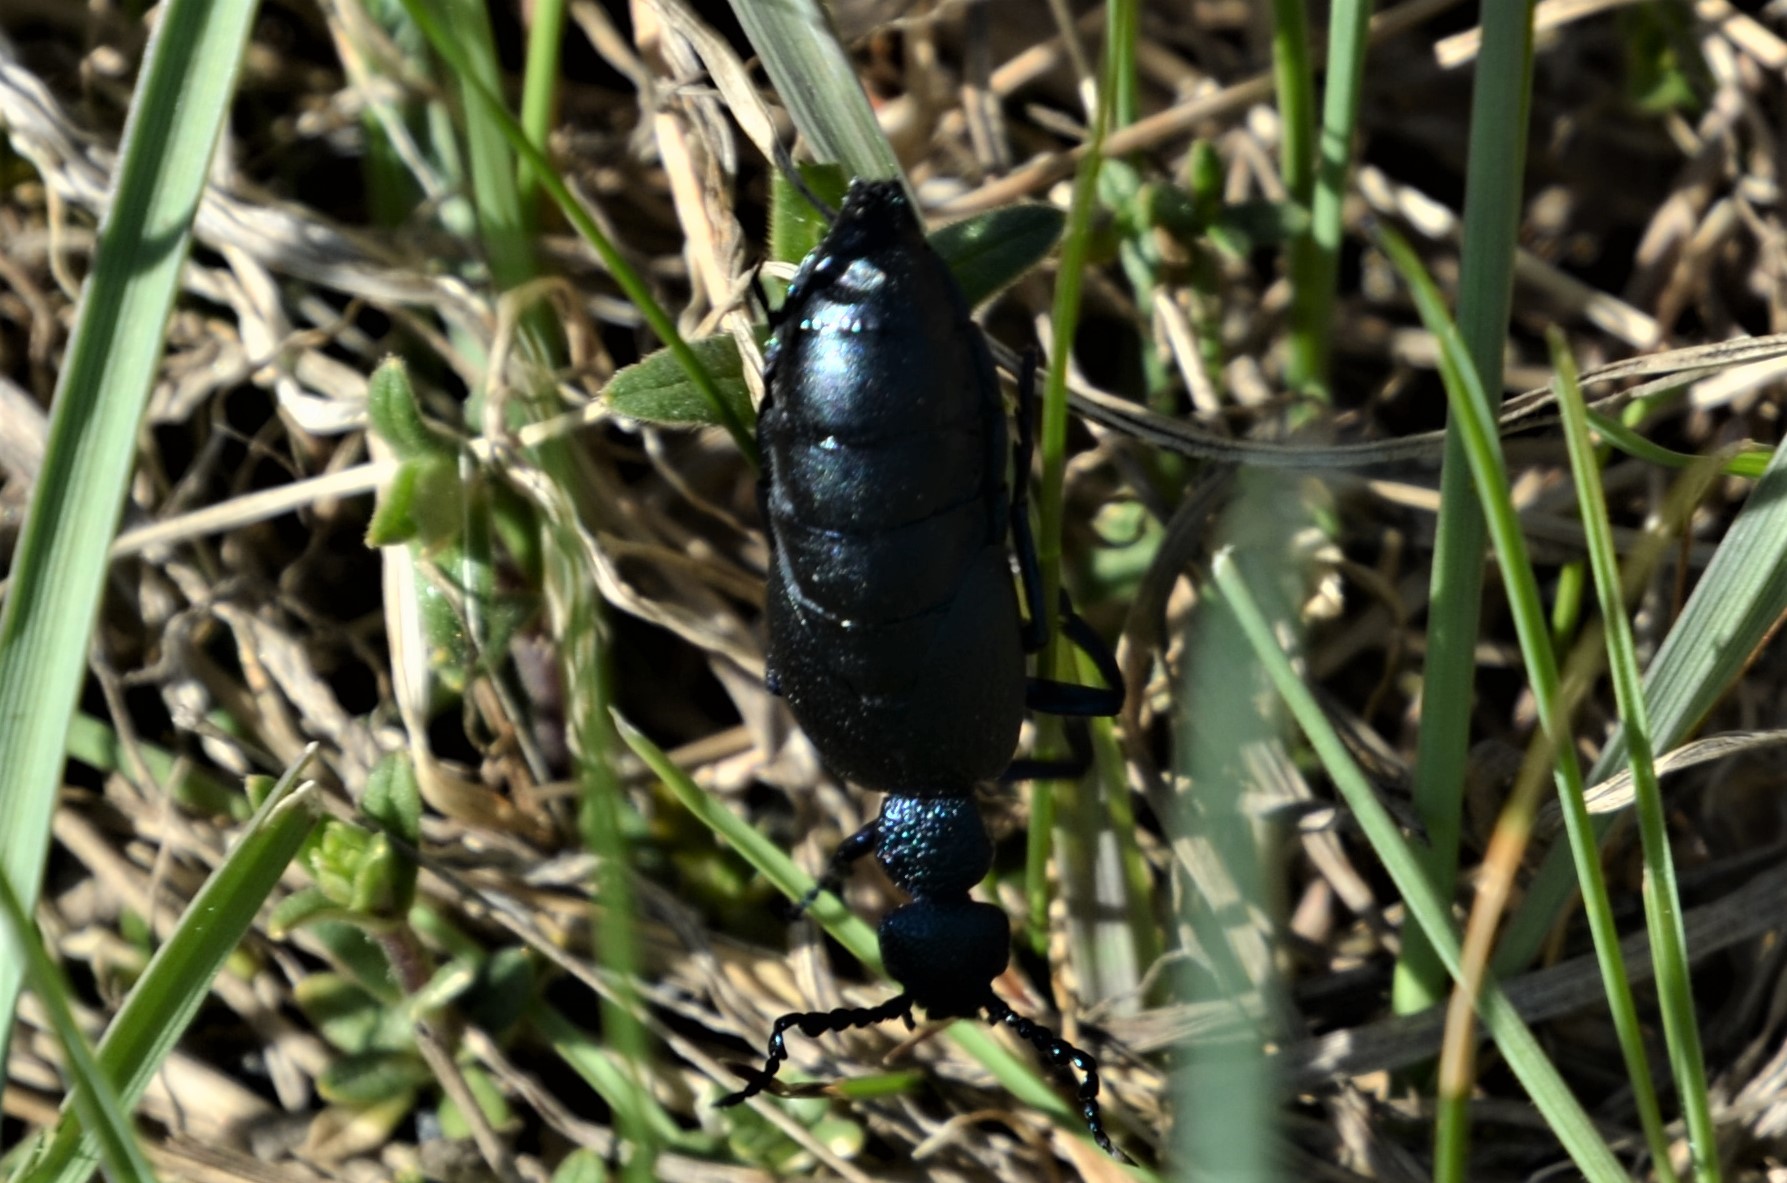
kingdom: Animalia
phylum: Arthropoda
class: Insecta
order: Coleoptera
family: Meloidae
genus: Meloe
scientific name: Meloe proscarabaeus
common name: Black oil-beetle
